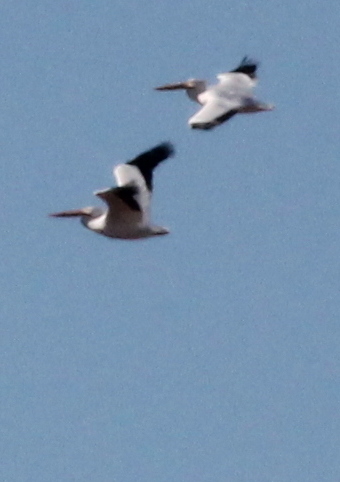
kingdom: Animalia
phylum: Chordata
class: Aves
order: Pelecaniformes
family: Pelecanidae
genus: Pelecanus
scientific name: Pelecanus erythrorhynchos
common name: American white pelican
